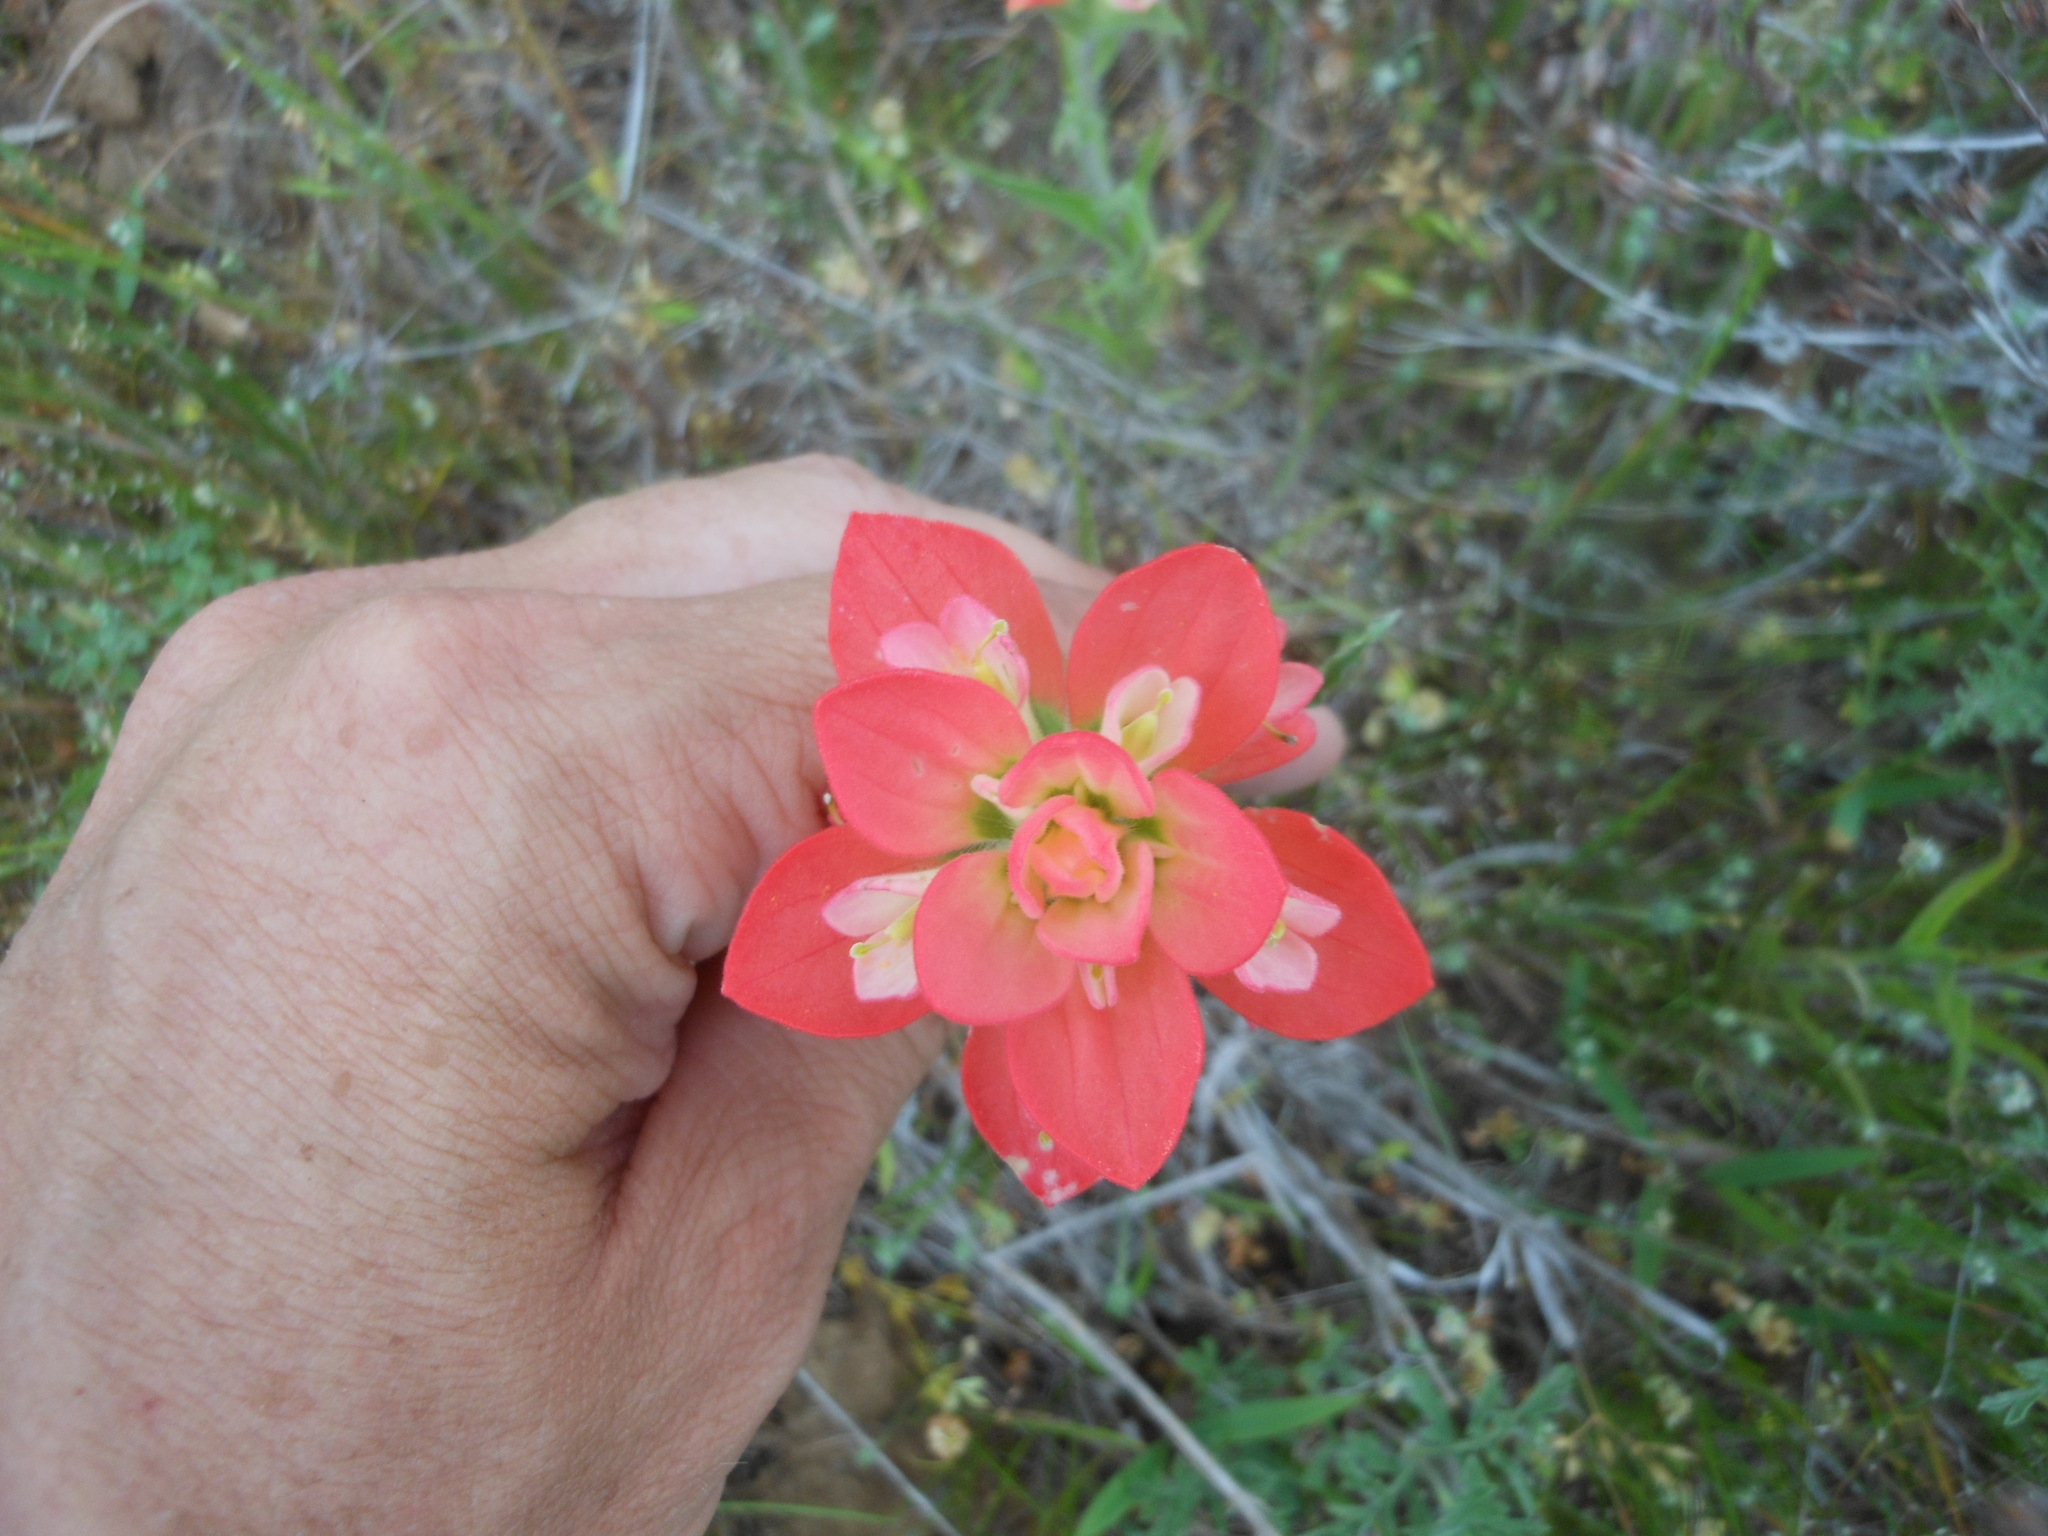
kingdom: Plantae
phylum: Tracheophyta
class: Magnoliopsida
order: Lamiales
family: Orobanchaceae
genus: Castilleja
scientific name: Castilleja indivisa
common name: Texas paintbrush
